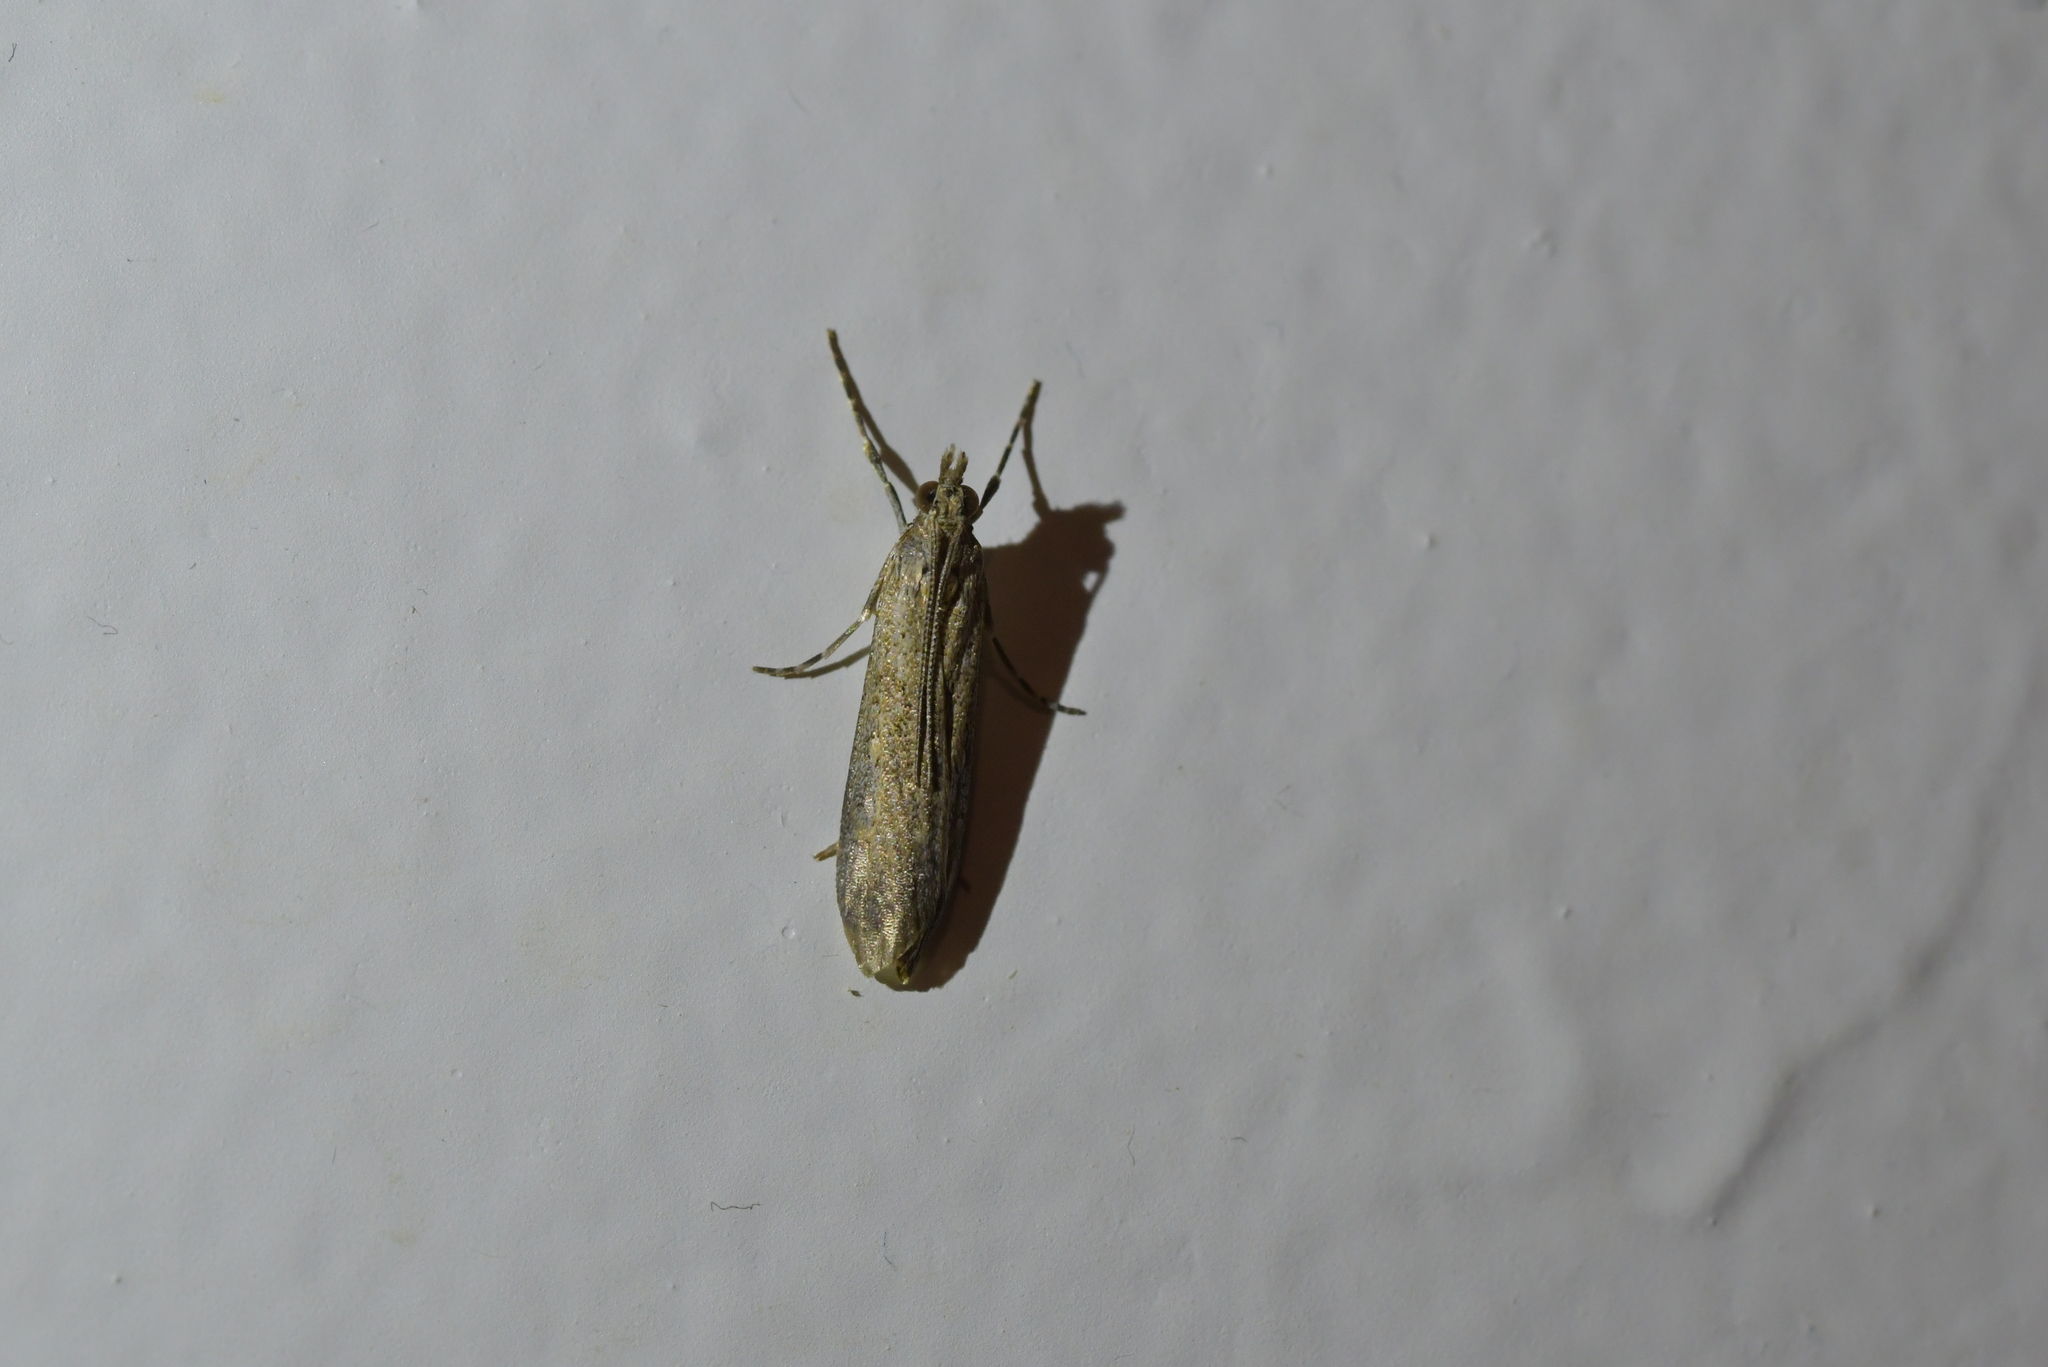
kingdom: Animalia
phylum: Arthropoda
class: Insecta
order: Lepidoptera
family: Crambidae
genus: Eudonia
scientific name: Eudonia leptalea
